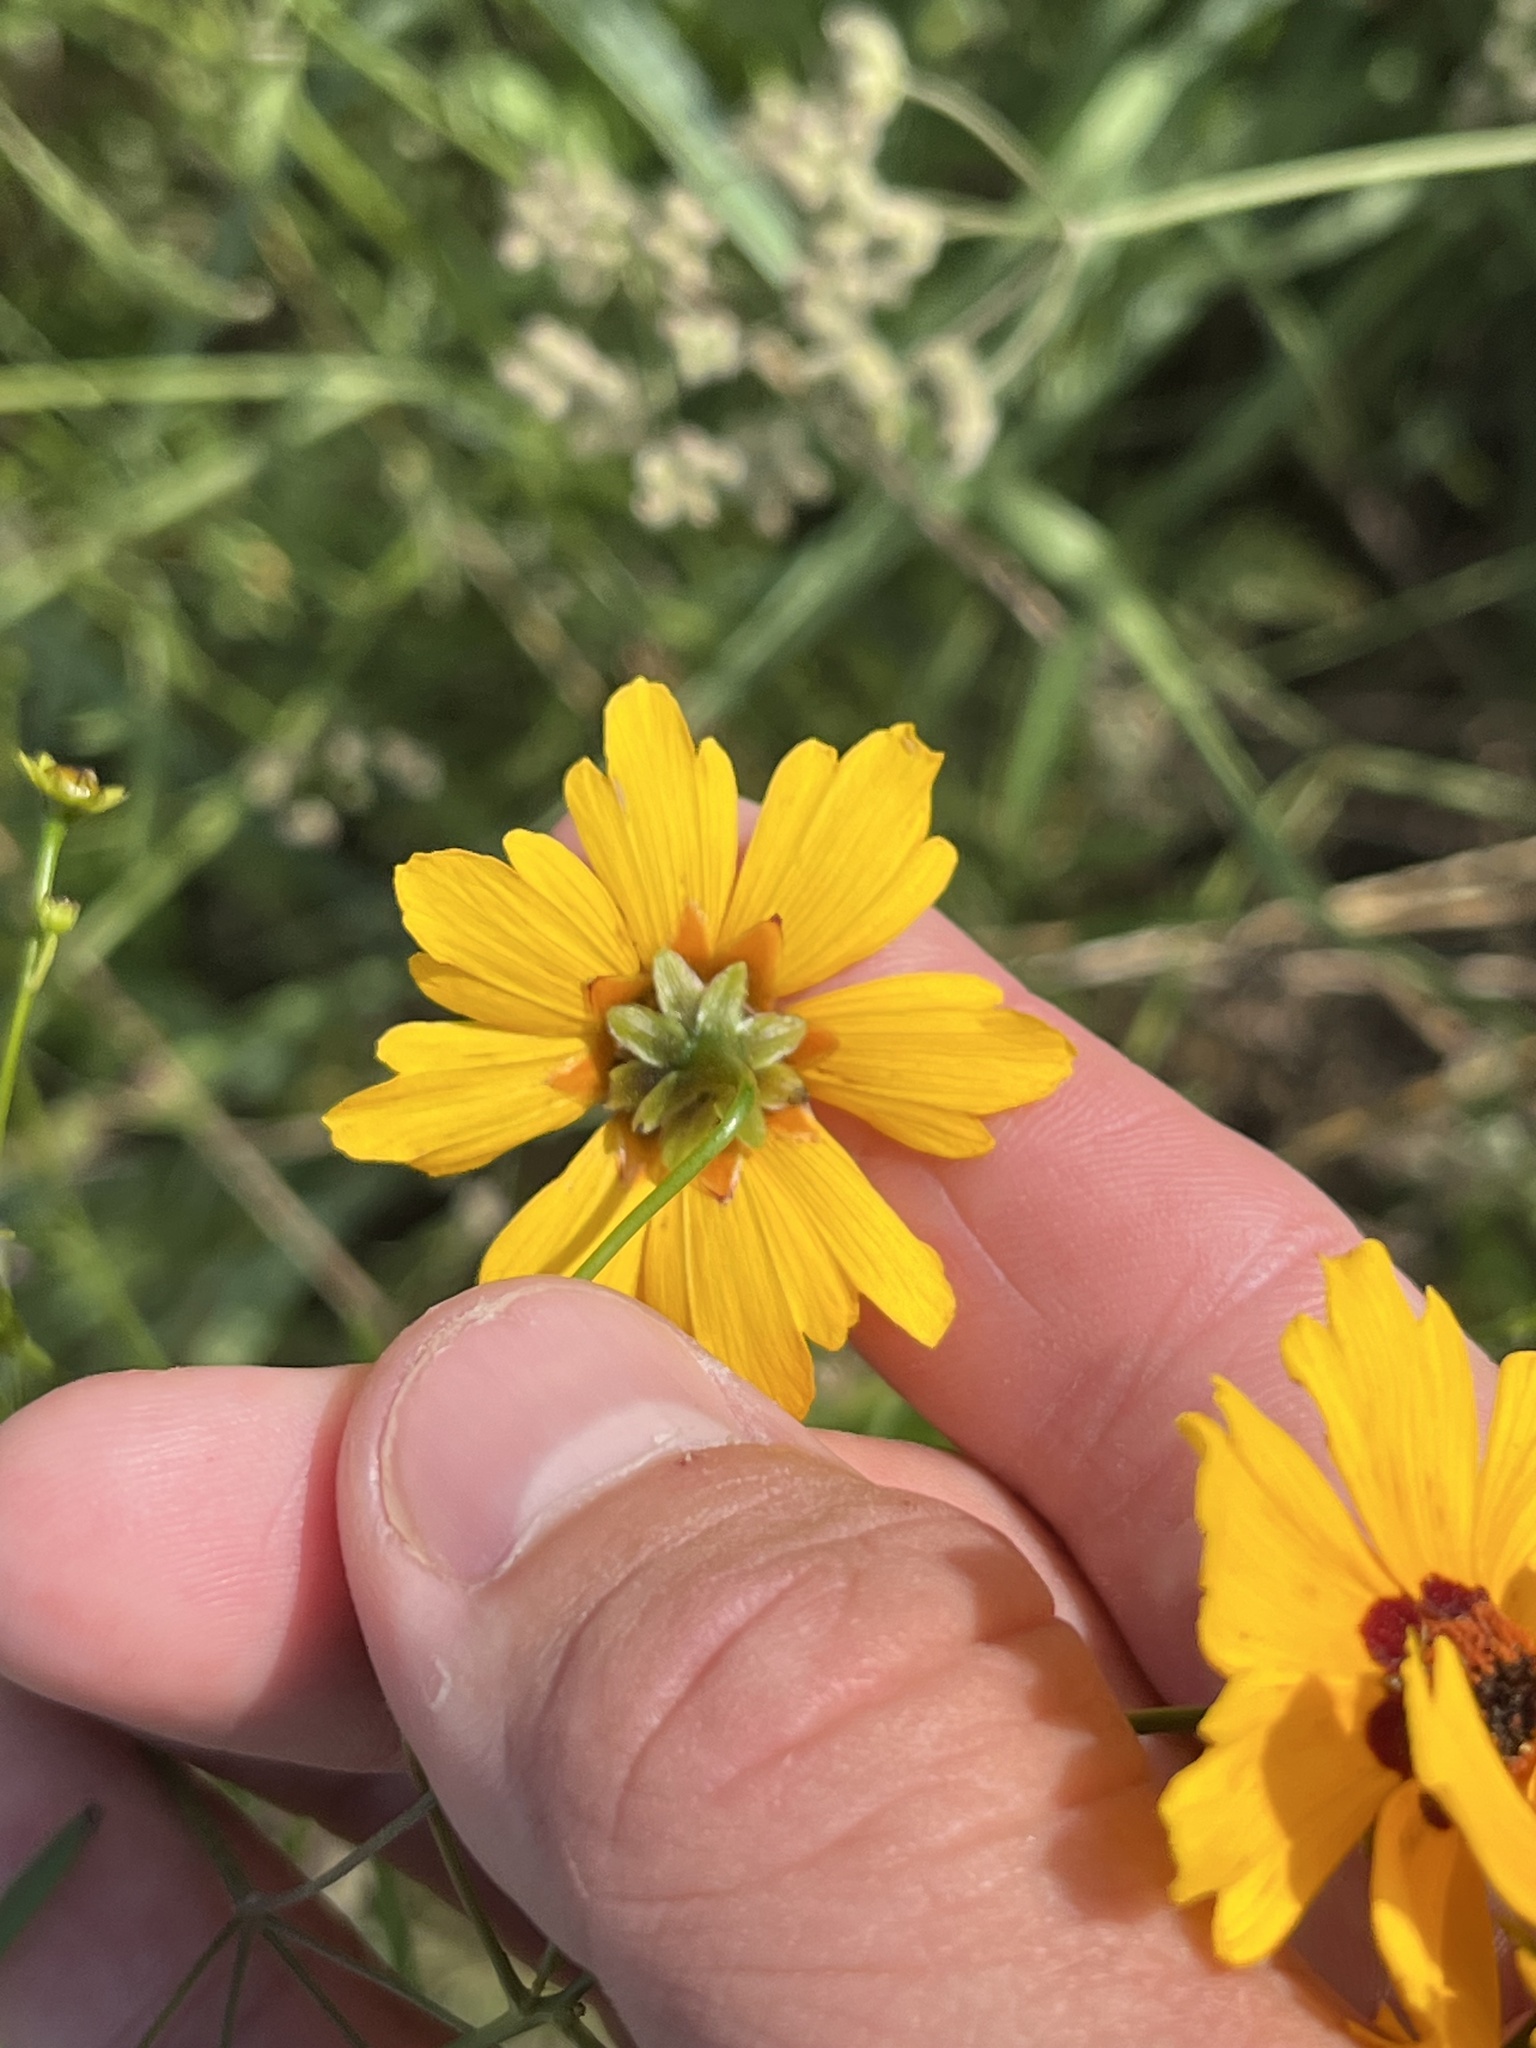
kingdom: Plantae
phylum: Tracheophyta
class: Magnoliopsida
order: Asterales
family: Asteraceae
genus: Coreopsis
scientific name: Coreopsis tinctoria
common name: Garden tickseed
